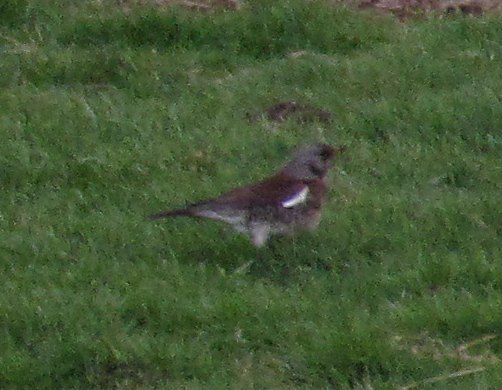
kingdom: Animalia
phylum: Chordata
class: Aves
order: Passeriformes
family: Turdidae
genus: Turdus
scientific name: Turdus pilaris
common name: Fieldfare
